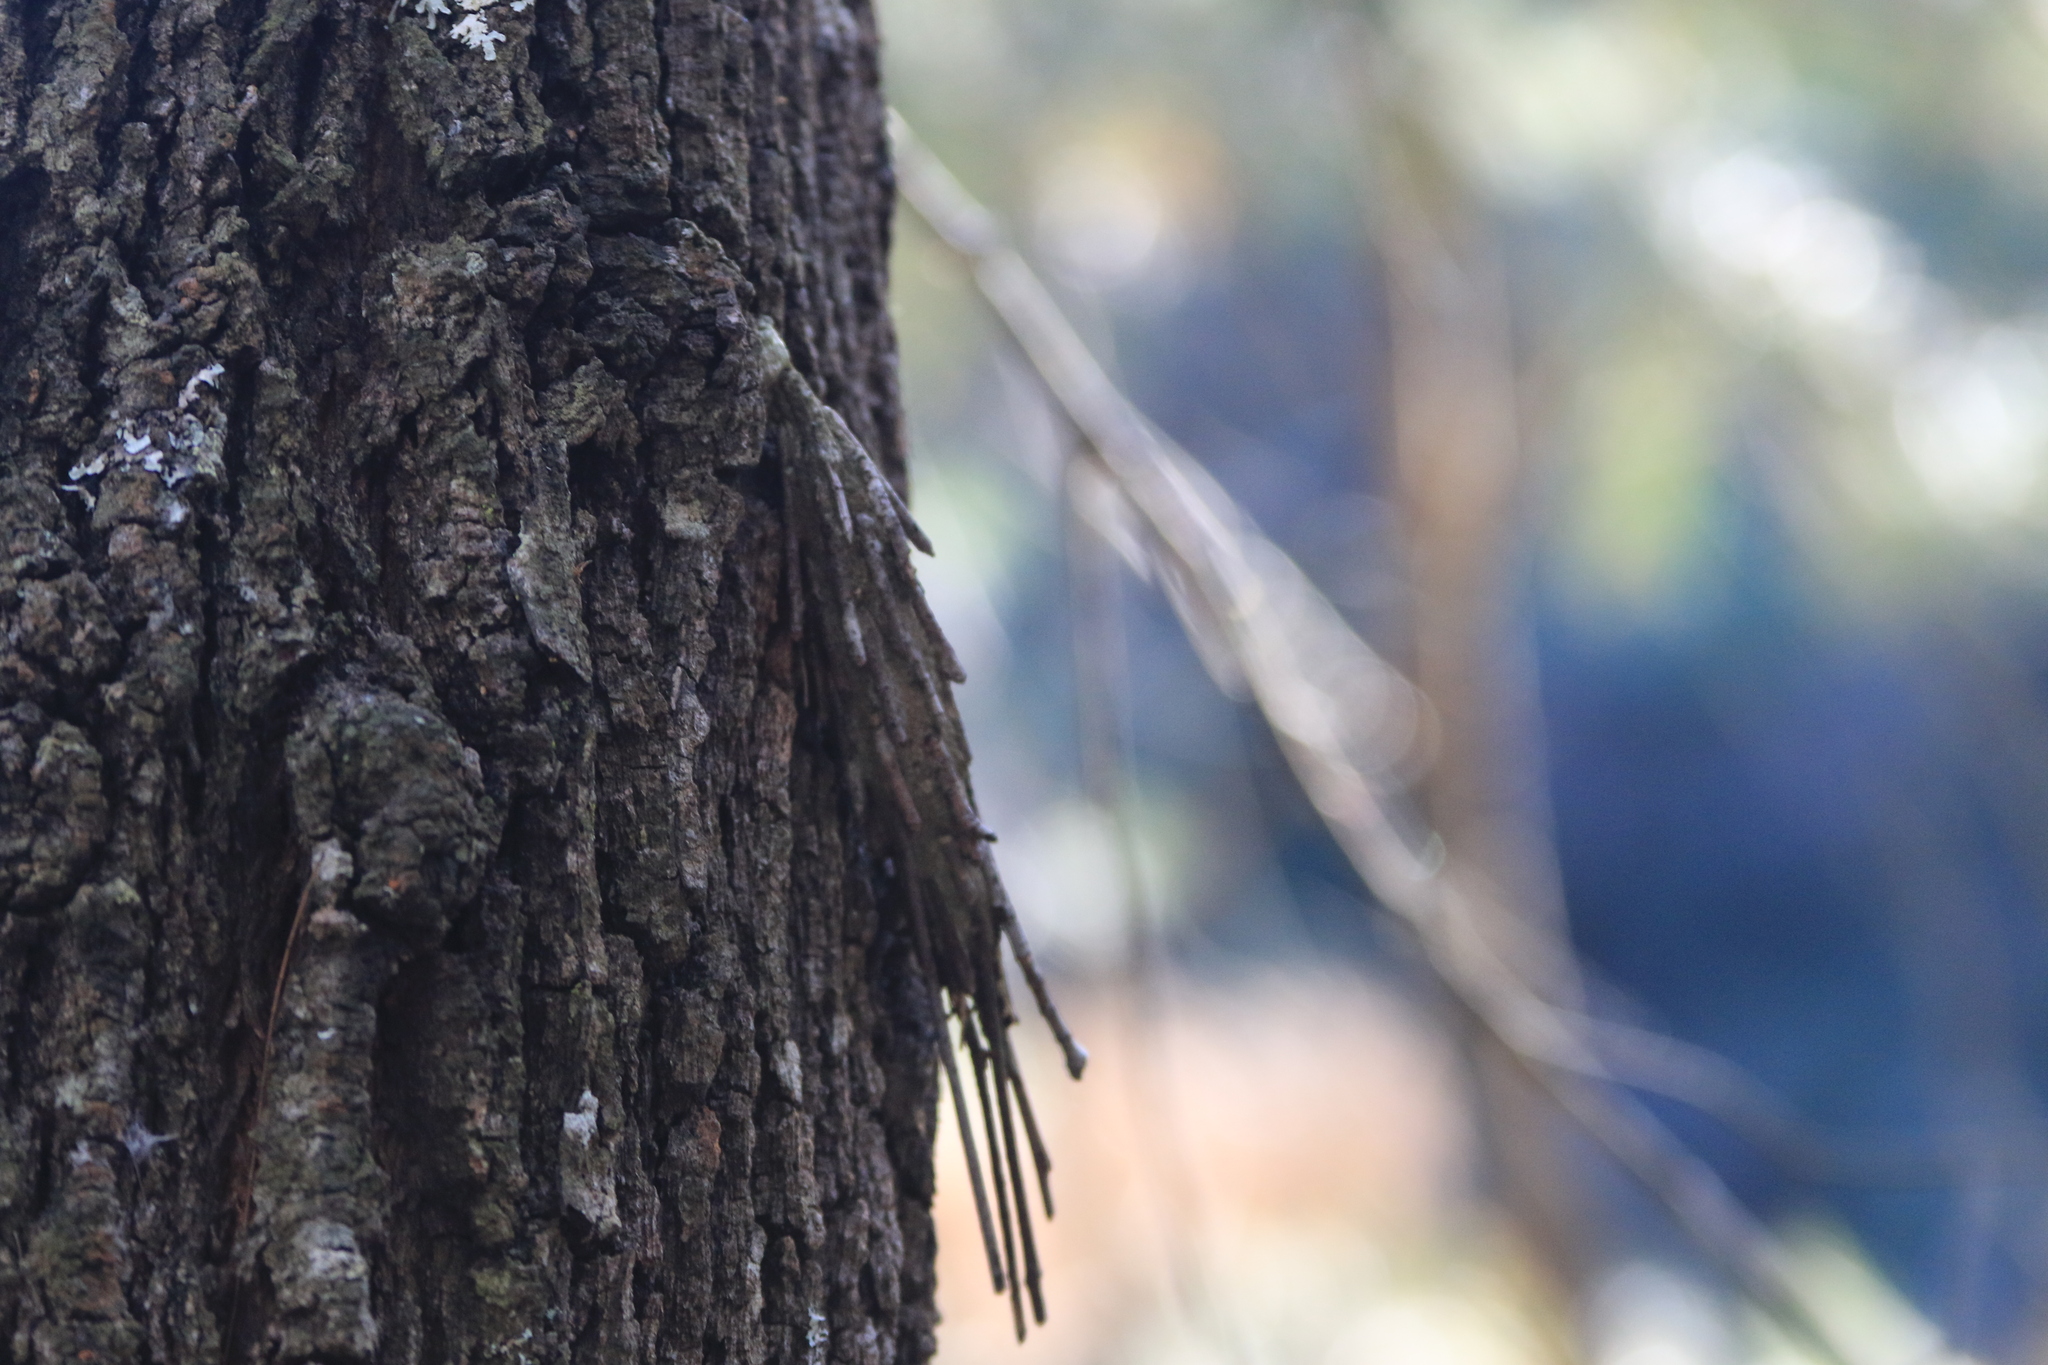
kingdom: Animalia
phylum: Arthropoda
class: Insecta
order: Lepidoptera
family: Psychidae
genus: Metura
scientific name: Metura elongatus
